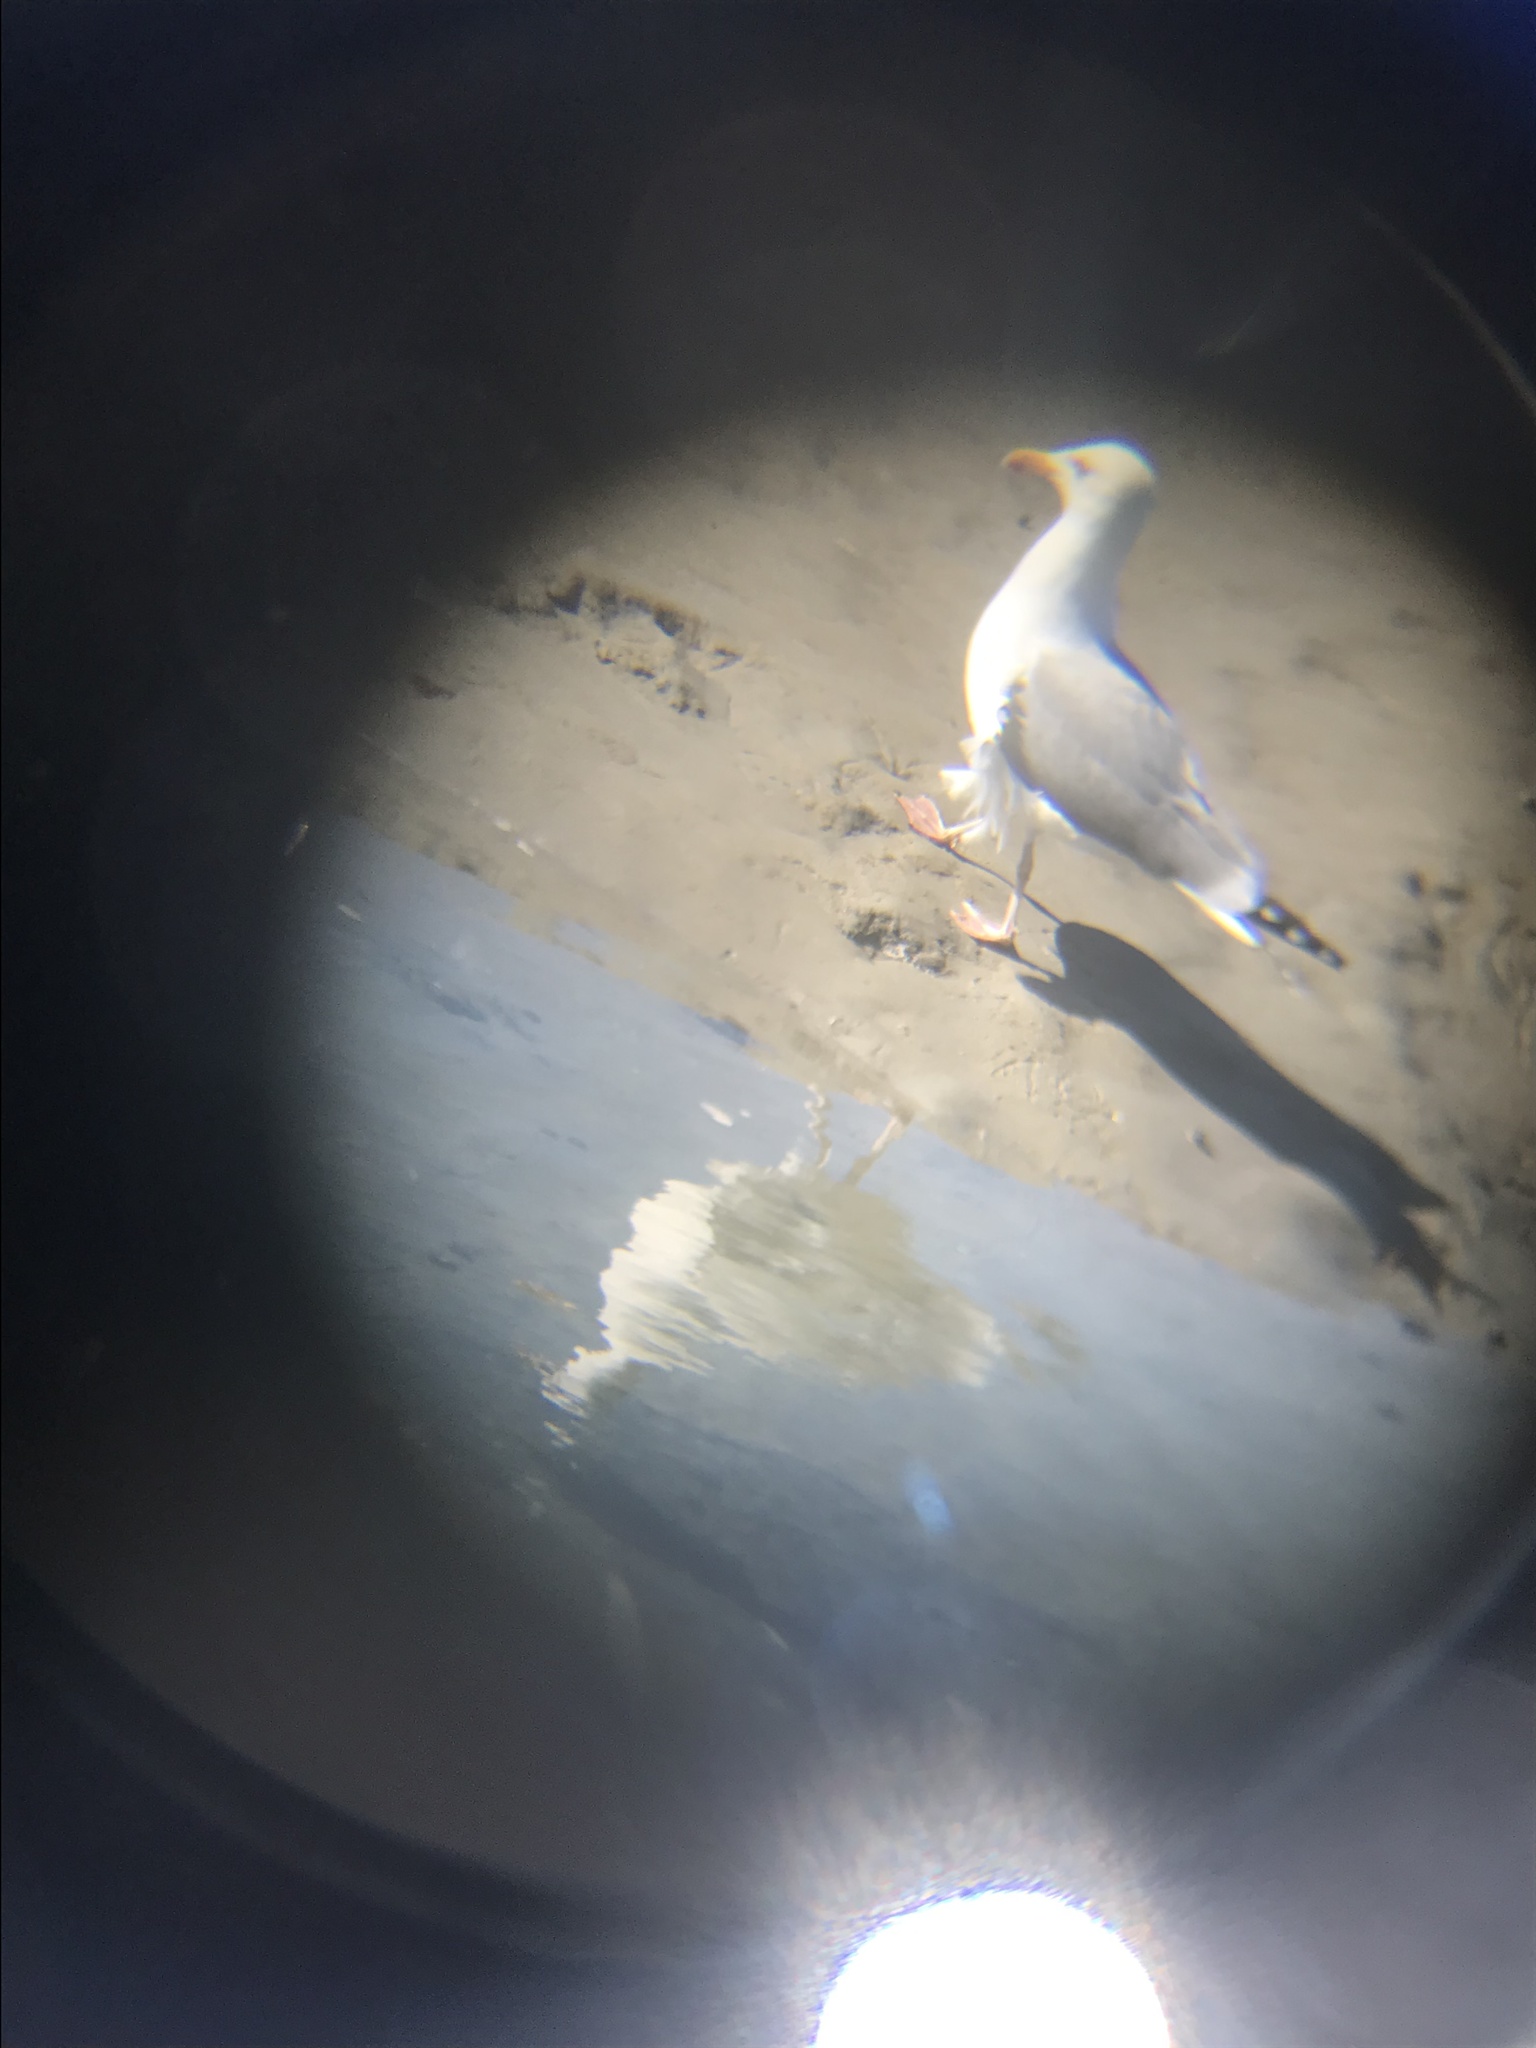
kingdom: Animalia
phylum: Chordata
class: Aves
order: Charadriiformes
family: Laridae
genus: Larus
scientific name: Larus argentatus
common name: Herring gull
